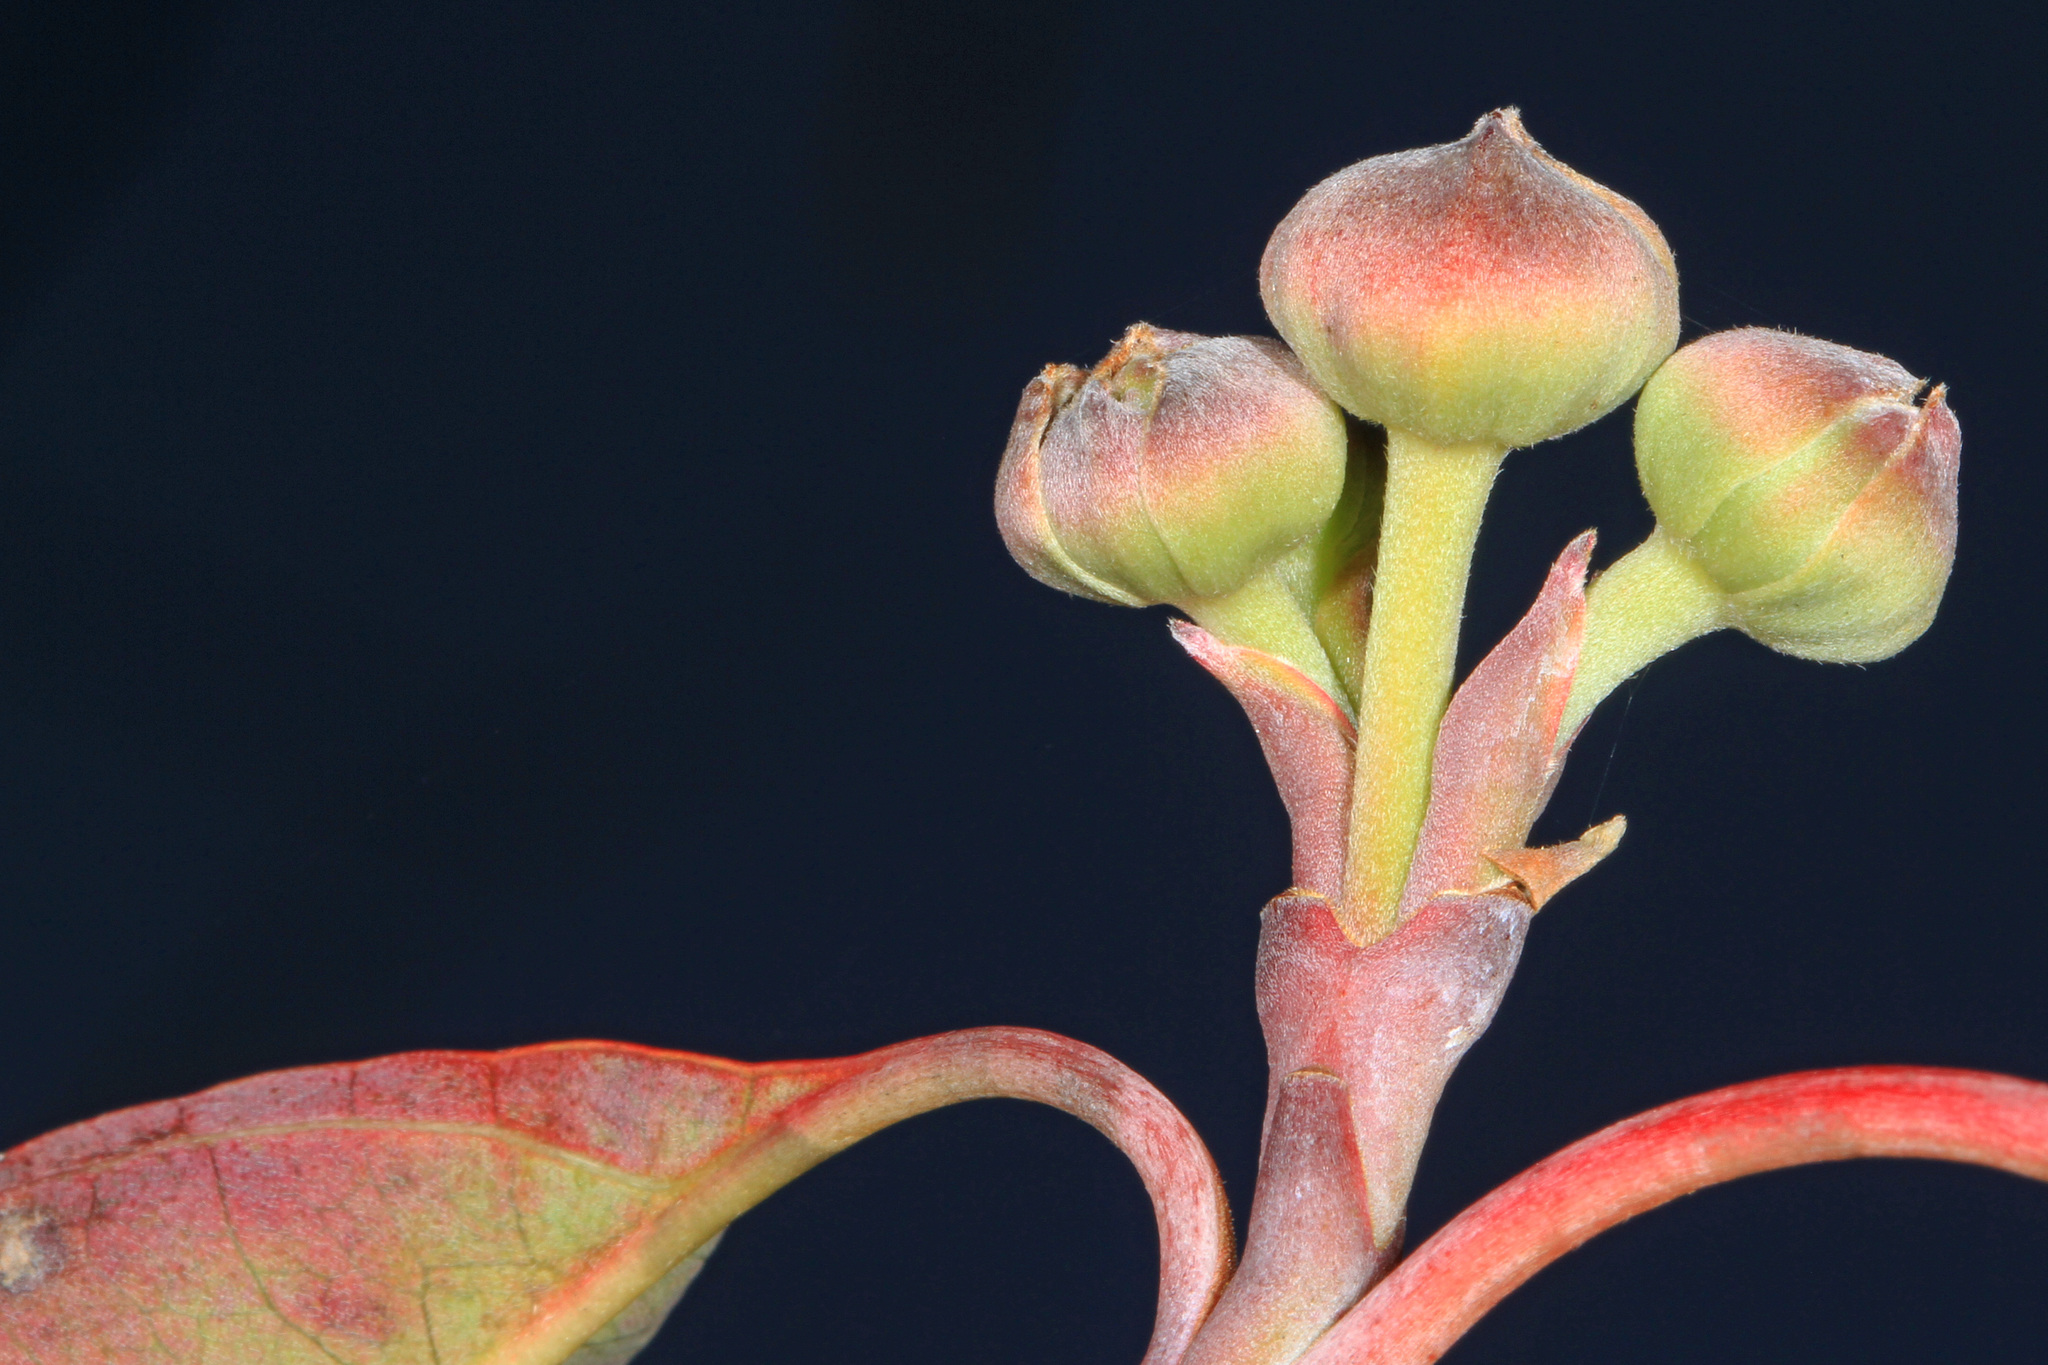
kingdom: Plantae
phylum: Tracheophyta
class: Magnoliopsida
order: Cornales
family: Cornaceae
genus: Cornus
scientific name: Cornus florida
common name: Flowering dogwood
